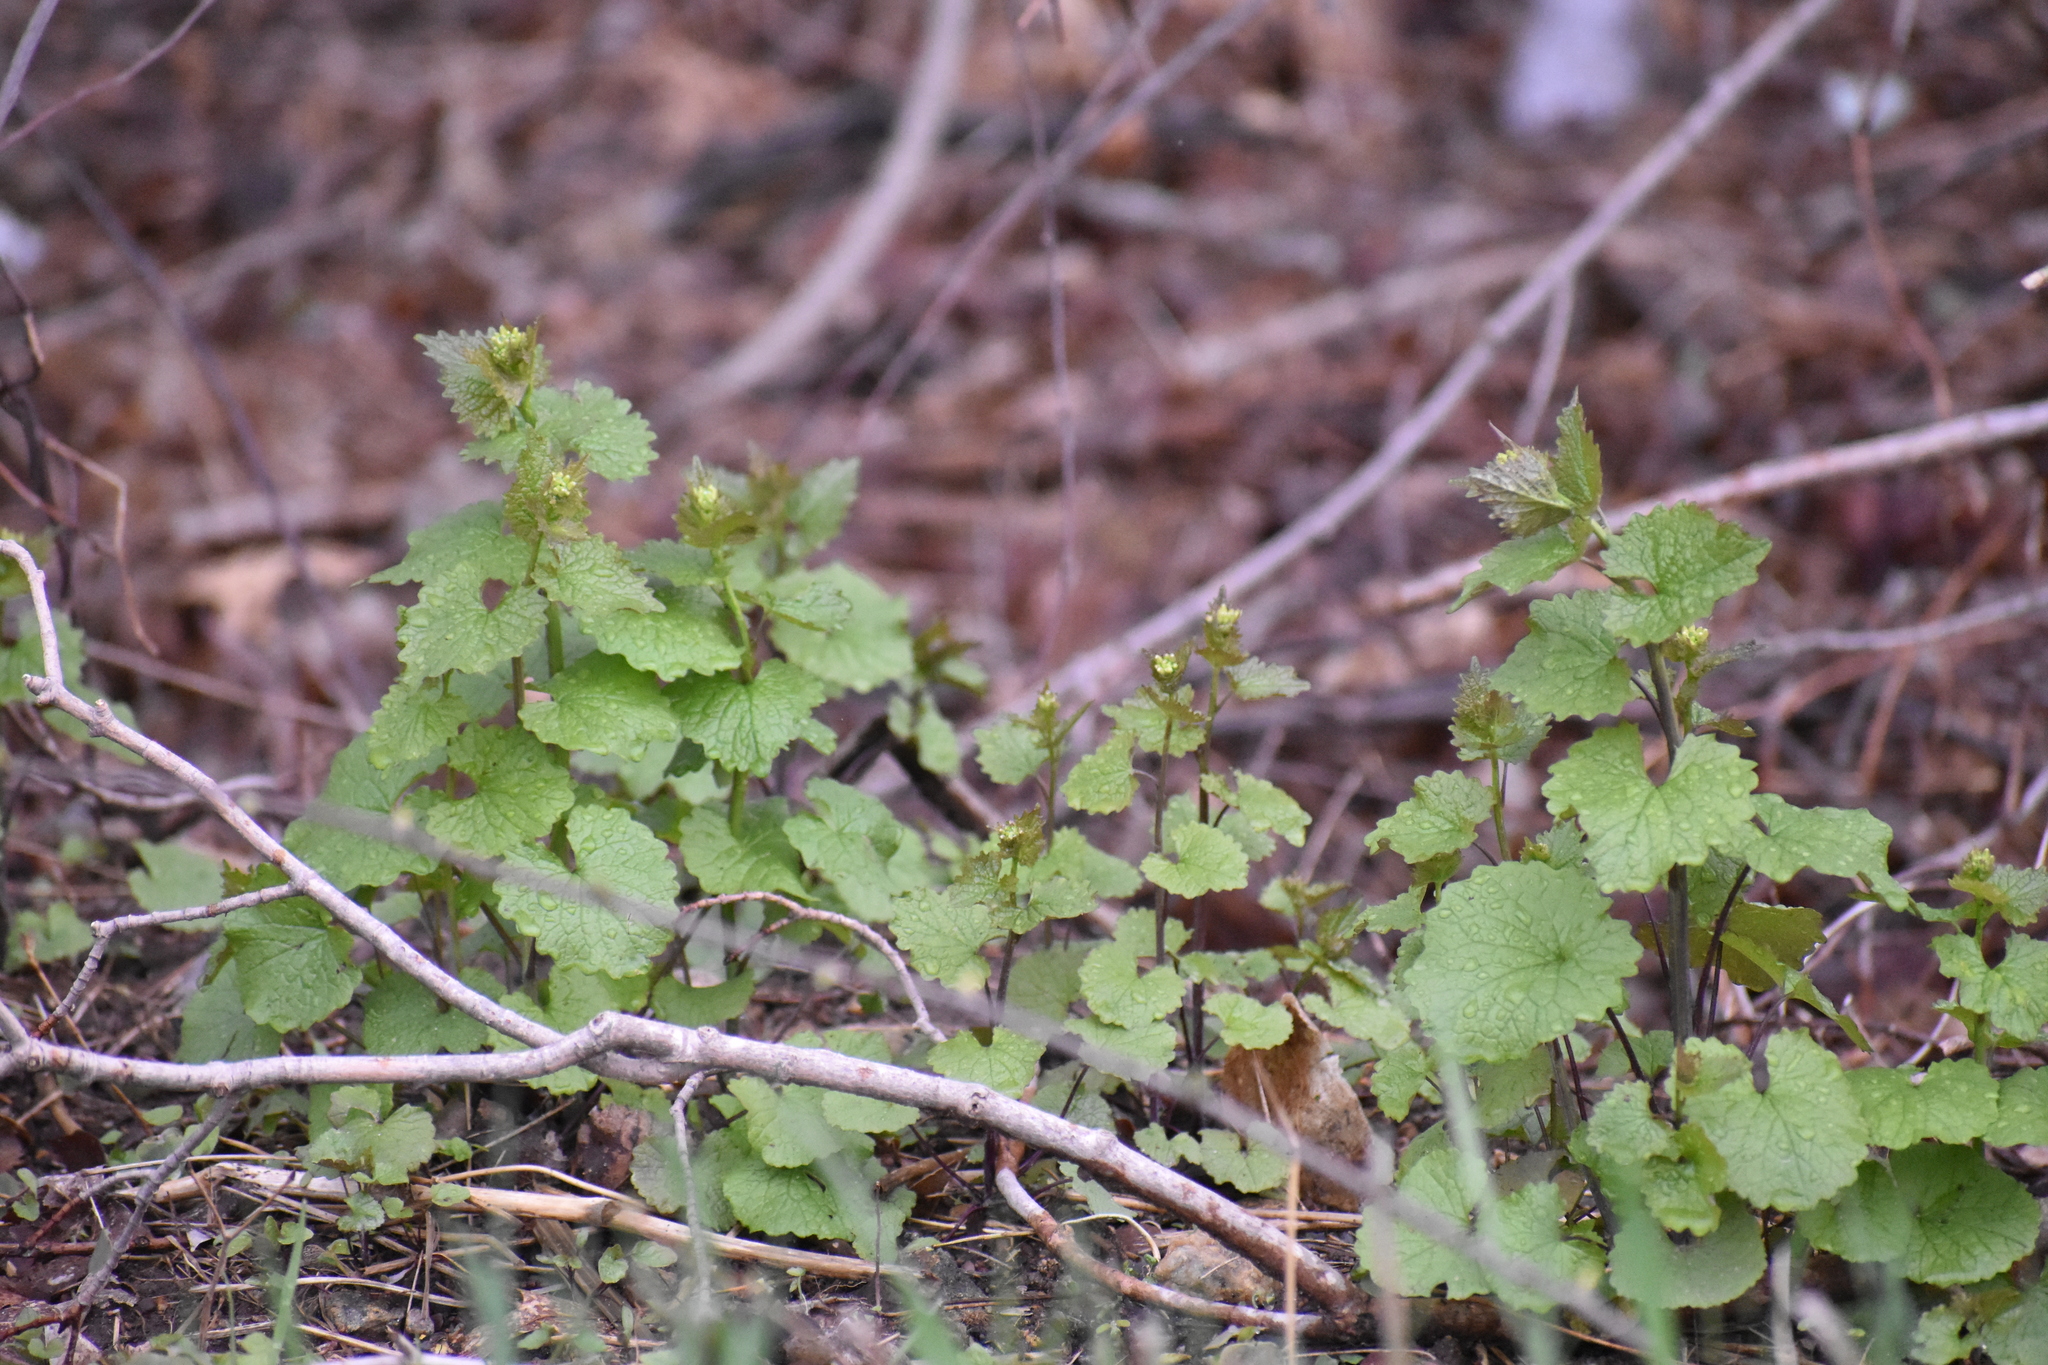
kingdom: Plantae
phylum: Tracheophyta
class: Magnoliopsida
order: Brassicales
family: Brassicaceae
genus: Alliaria
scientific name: Alliaria petiolata
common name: Garlic mustard
